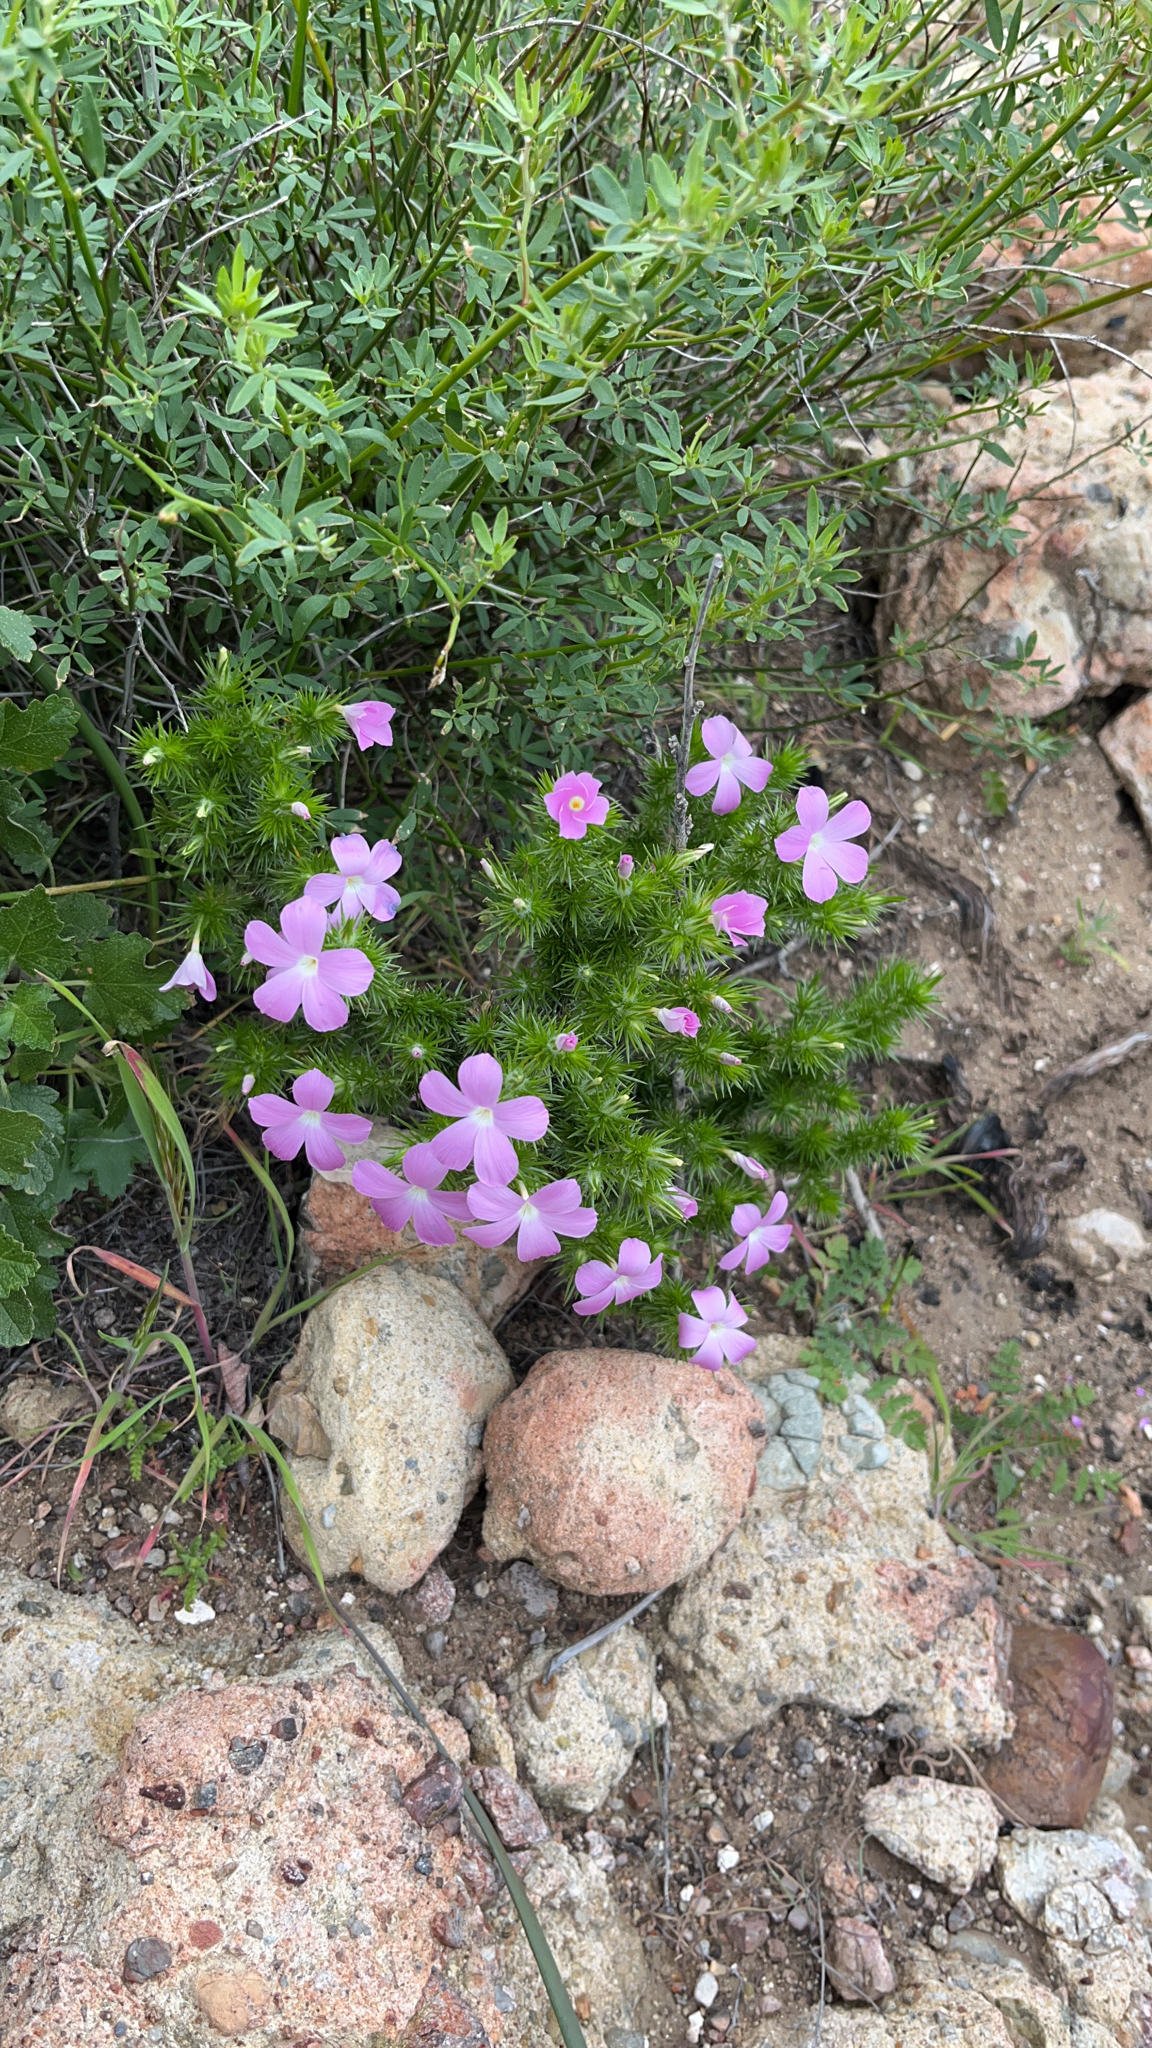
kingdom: Plantae
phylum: Tracheophyta
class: Magnoliopsida
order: Ericales
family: Polemoniaceae
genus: Linanthus
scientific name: Linanthus californicus
